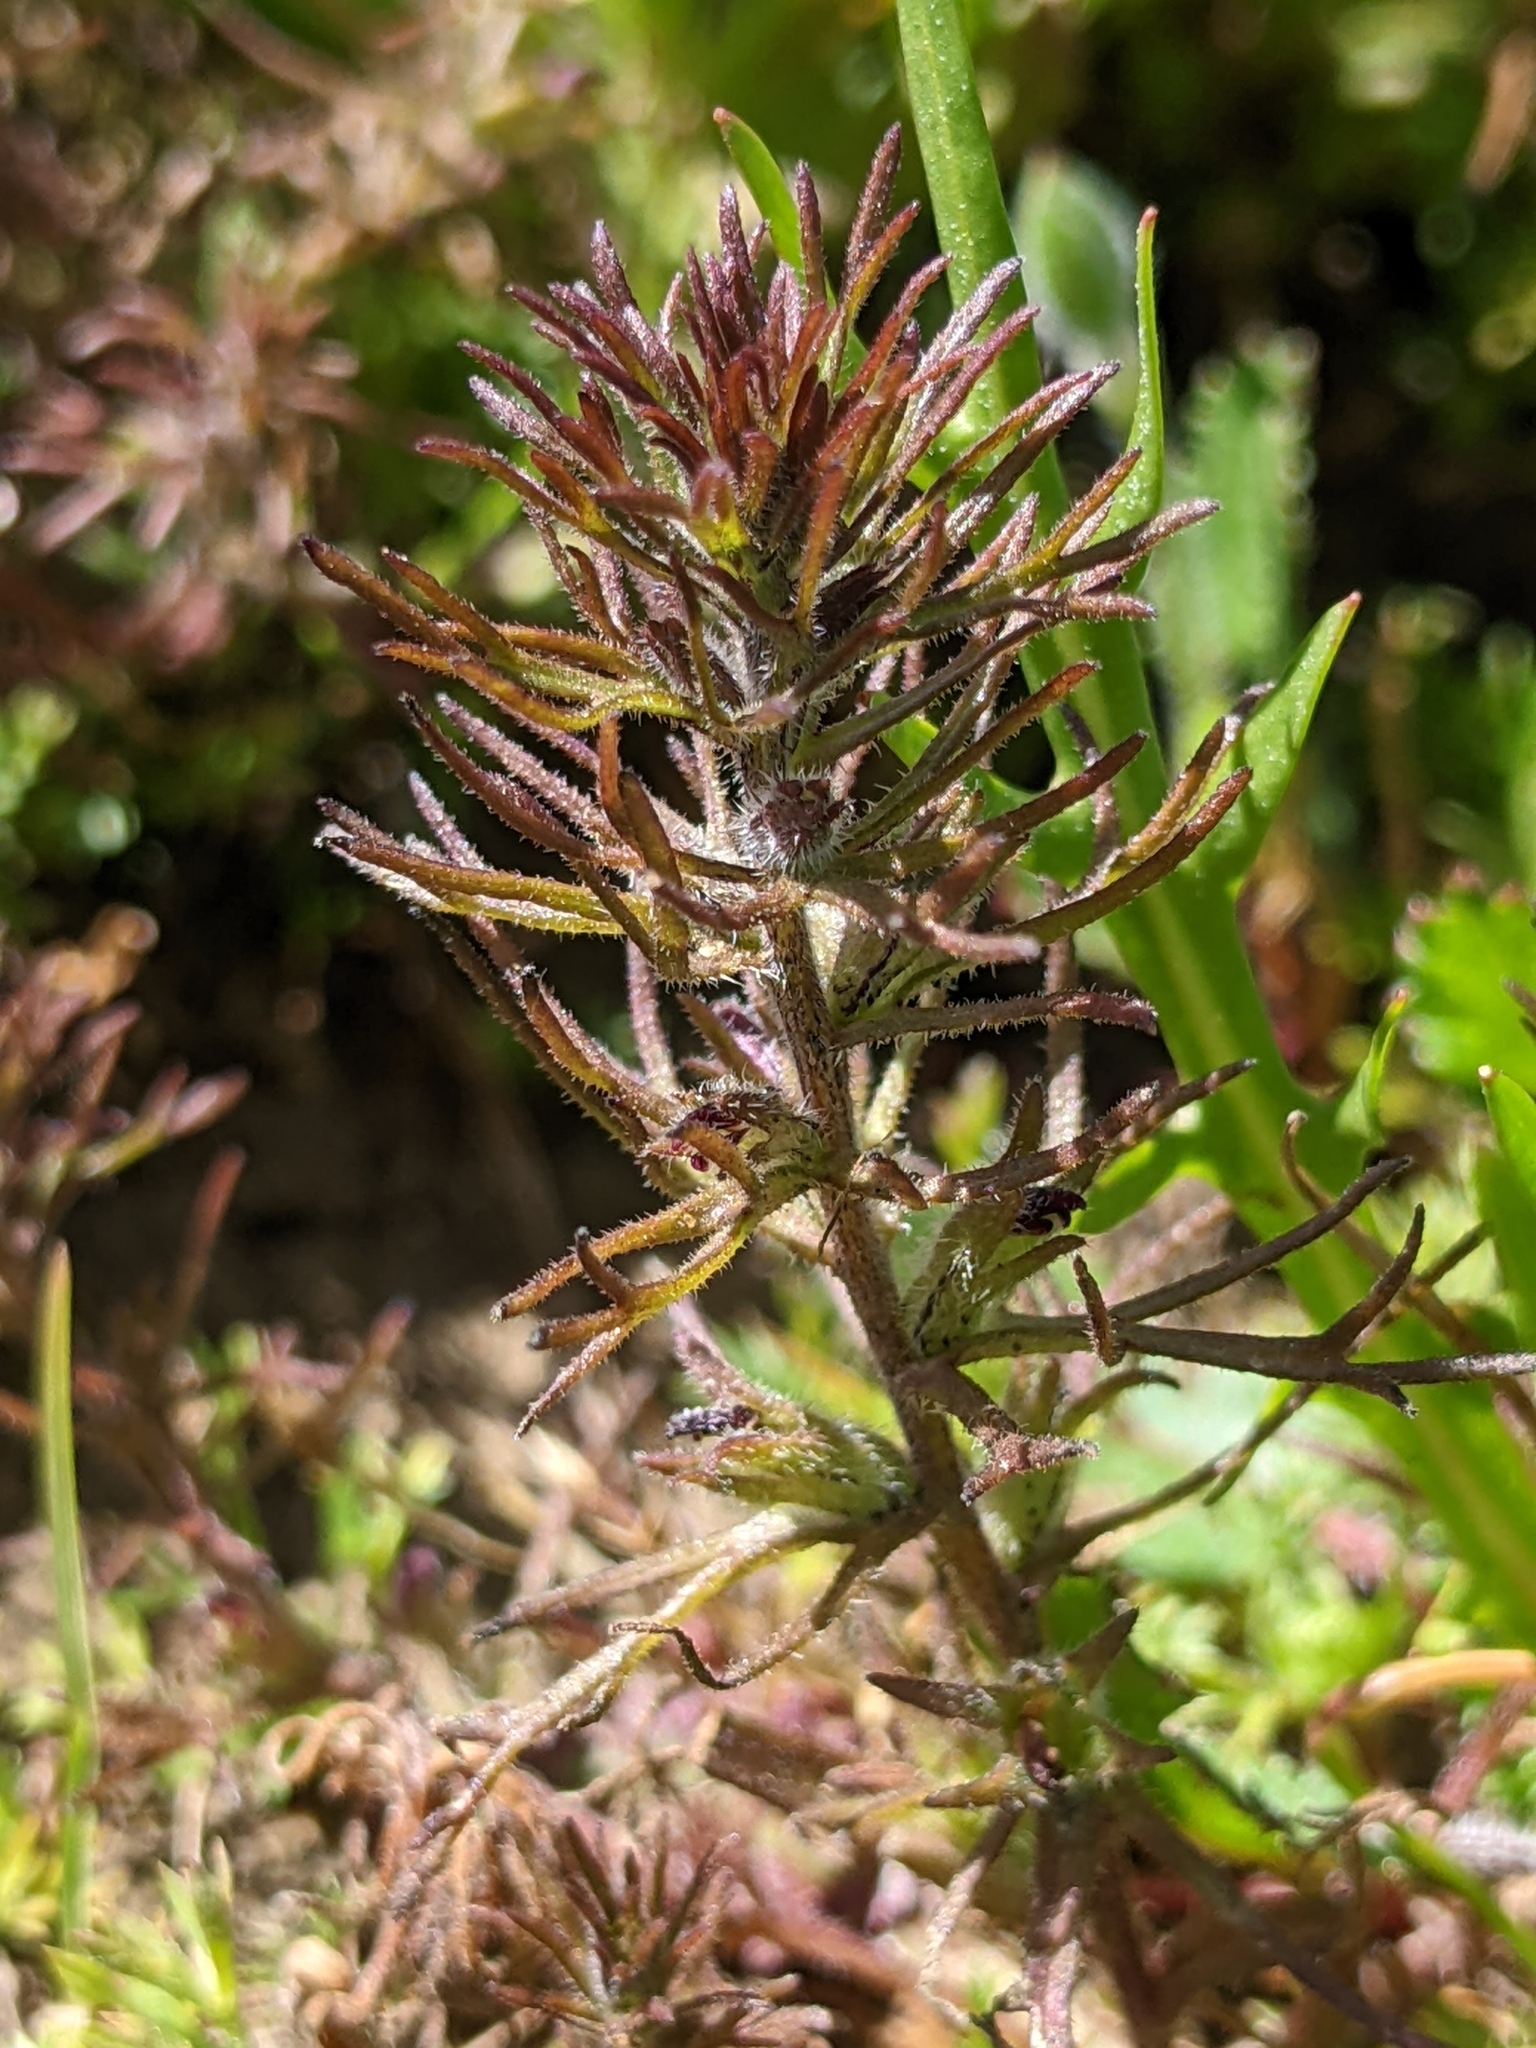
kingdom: Plantae
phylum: Tracheophyta
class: Magnoliopsida
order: Lamiales
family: Orobanchaceae
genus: Triphysaria
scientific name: Triphysaria pusilla
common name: Dwarf false owl-clover
